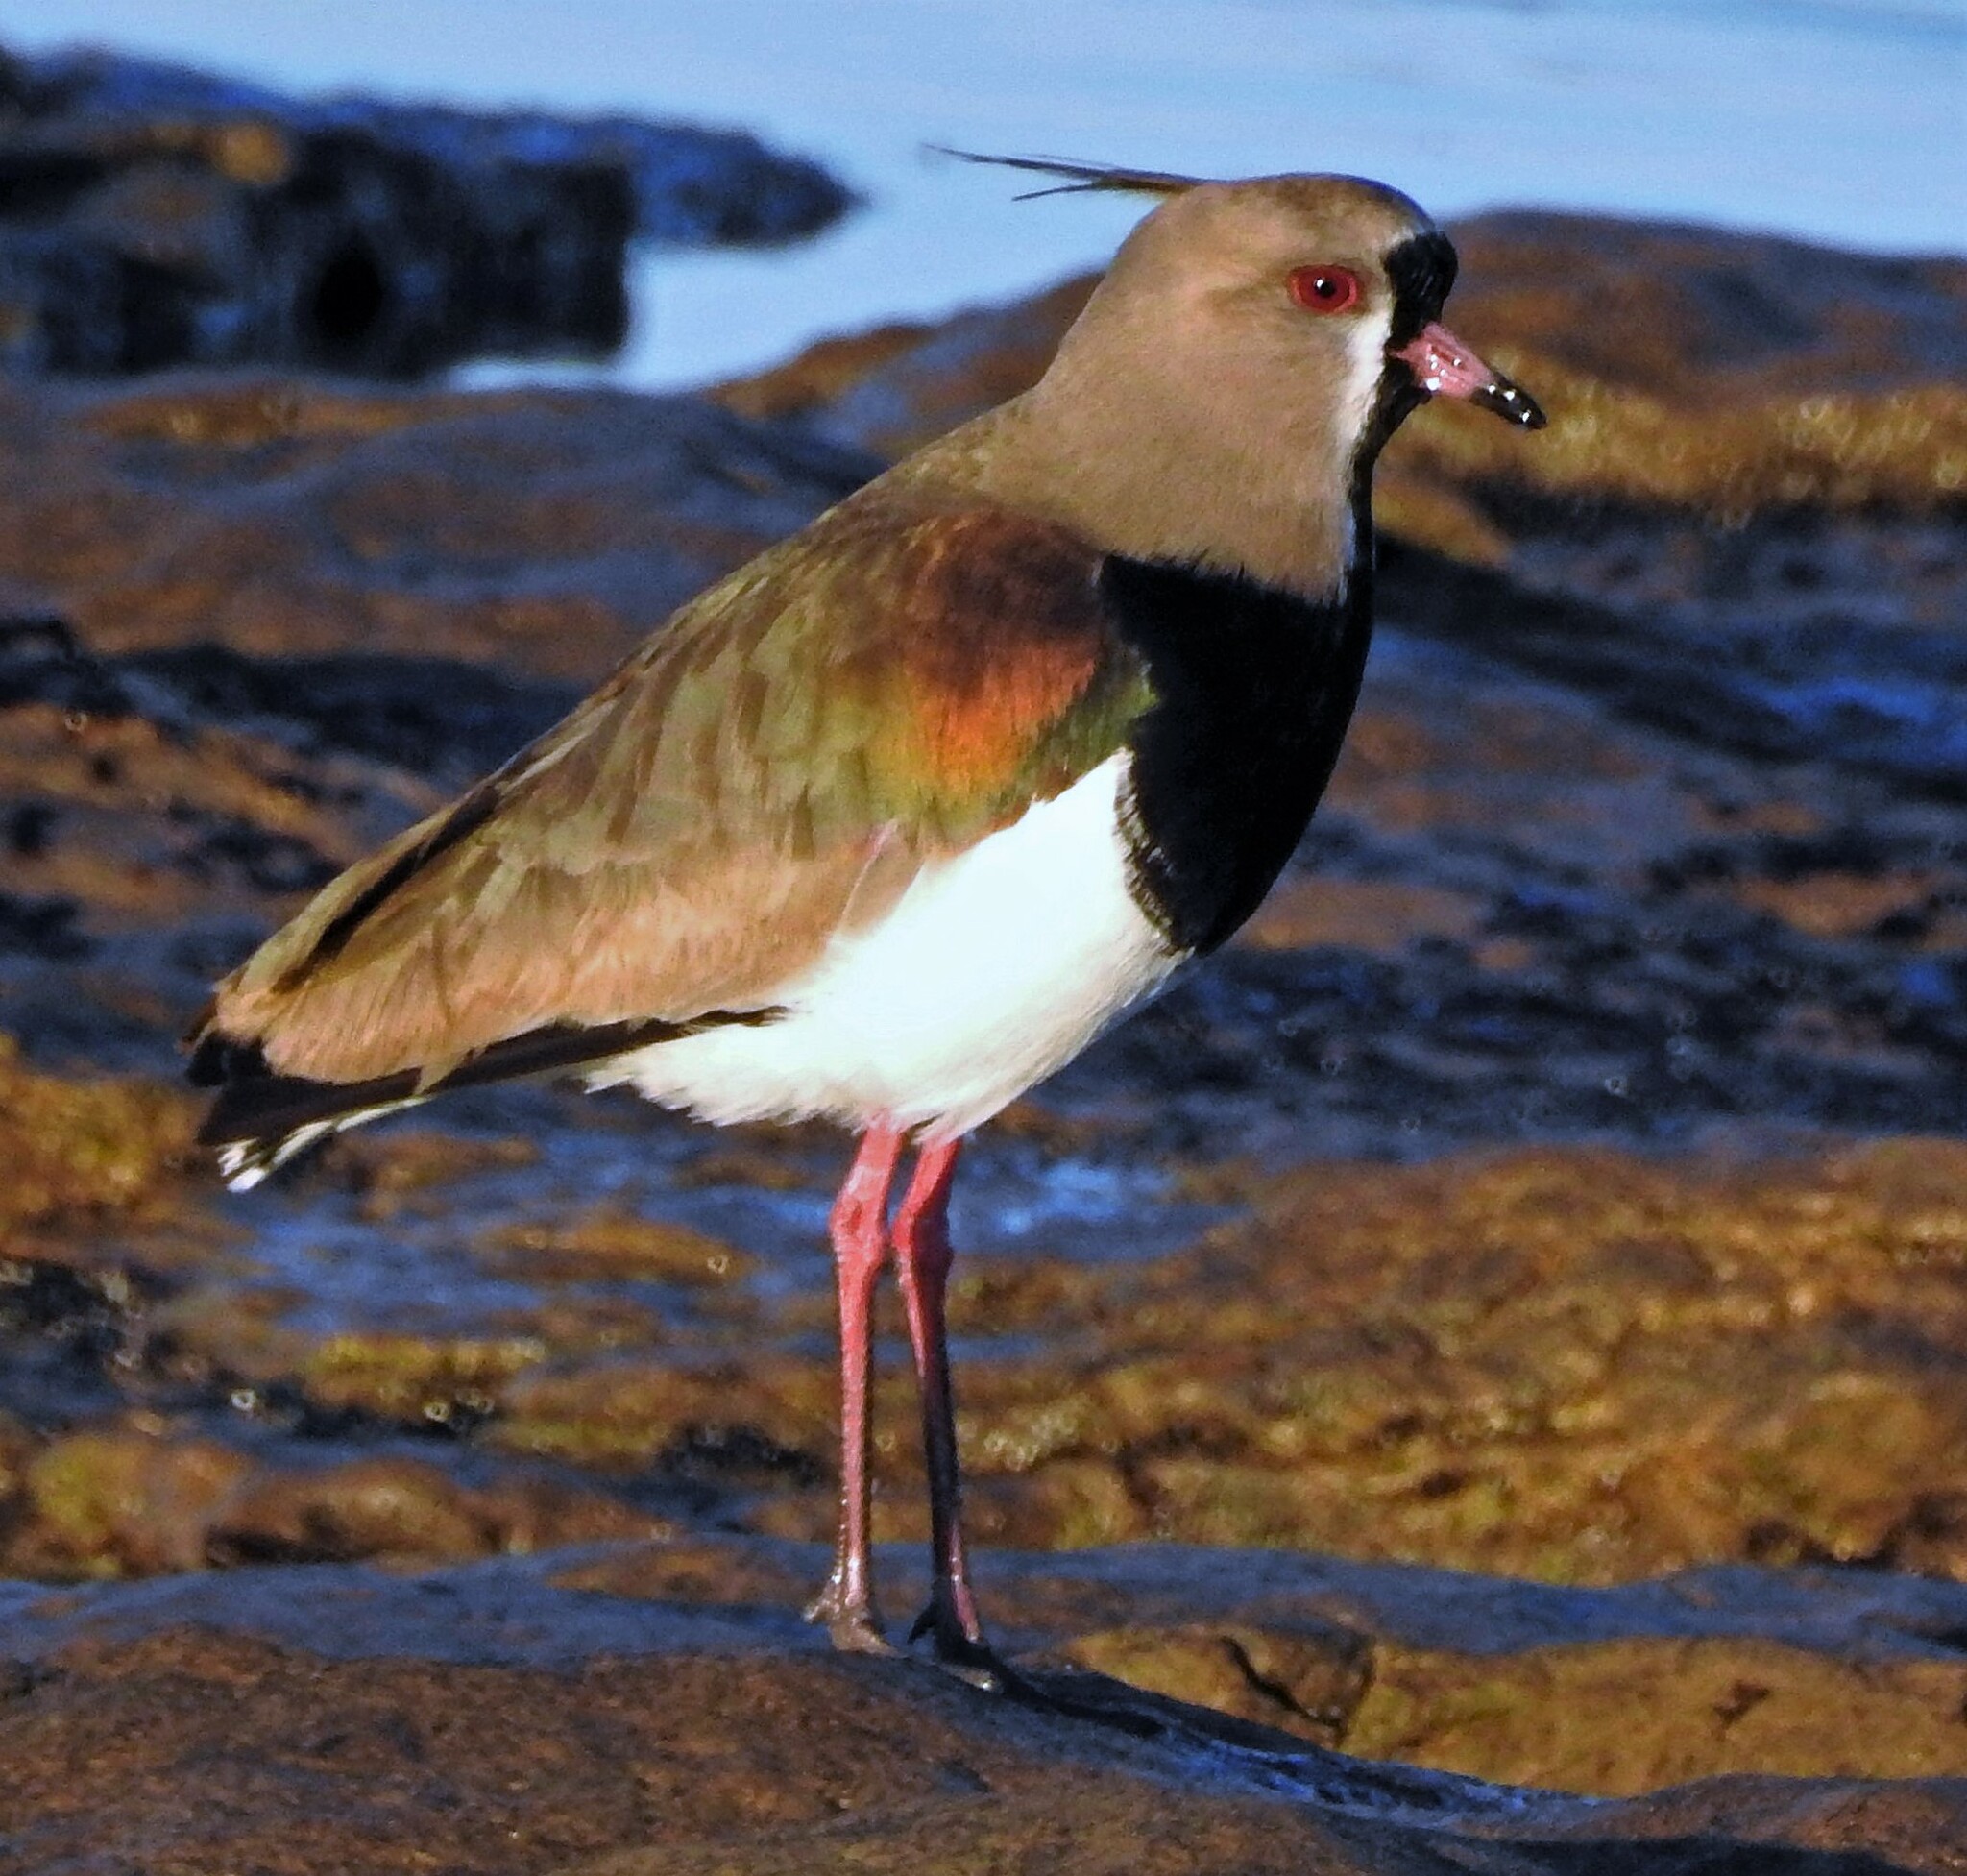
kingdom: Animalia
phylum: Chordata
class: Aves
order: Charadriiformes
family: Charadriidae
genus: Vanellus
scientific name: Vanellus chilensis
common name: Southern lapwing
